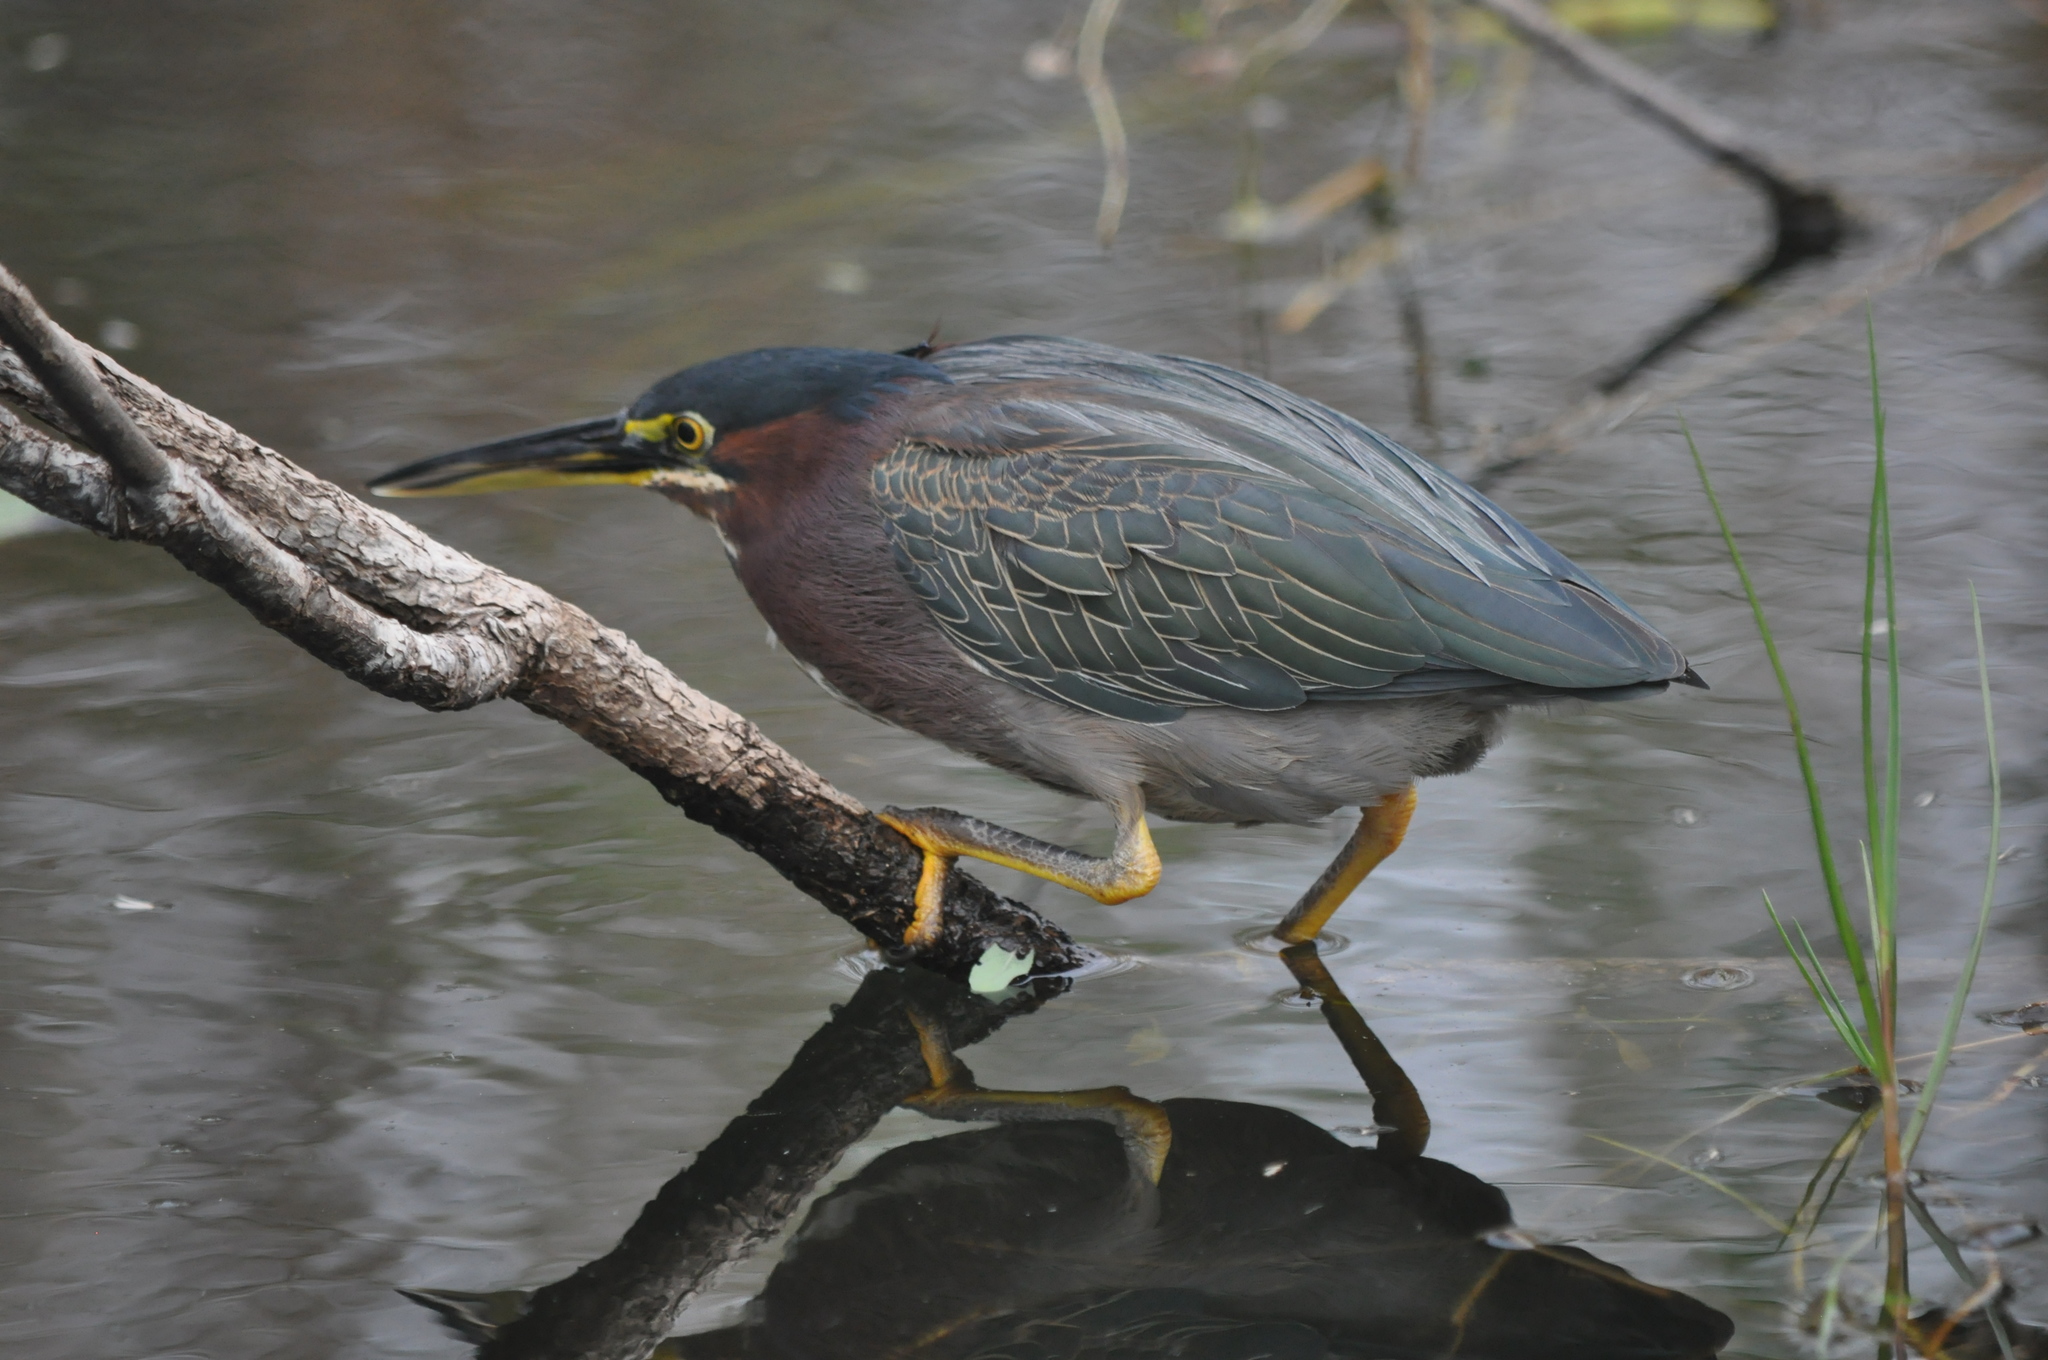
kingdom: Animalia
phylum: Chordata
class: Aves
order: Pelecaniformes
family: Ardeidae
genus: Butorides
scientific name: Butorides virescens
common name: Green heron
